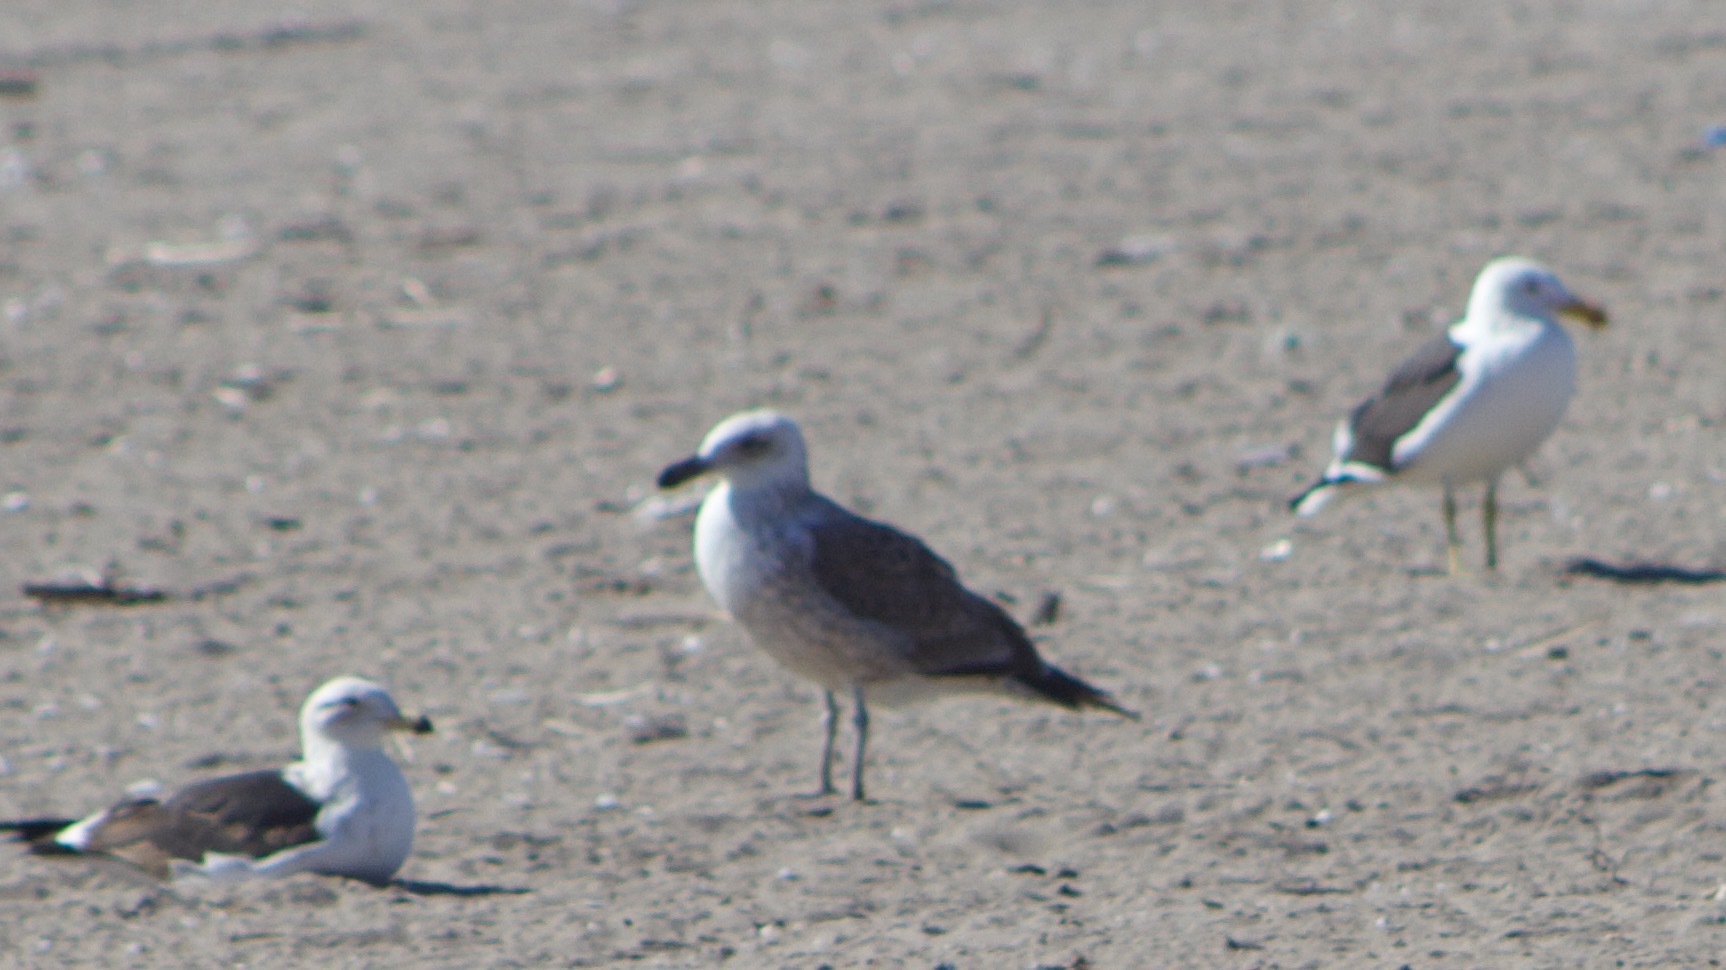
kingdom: Animalia
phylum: Chordata
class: Aves
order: Charadriiformes
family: Laridae
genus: Larus
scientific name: Larus dominicanus
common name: Kelp gull
